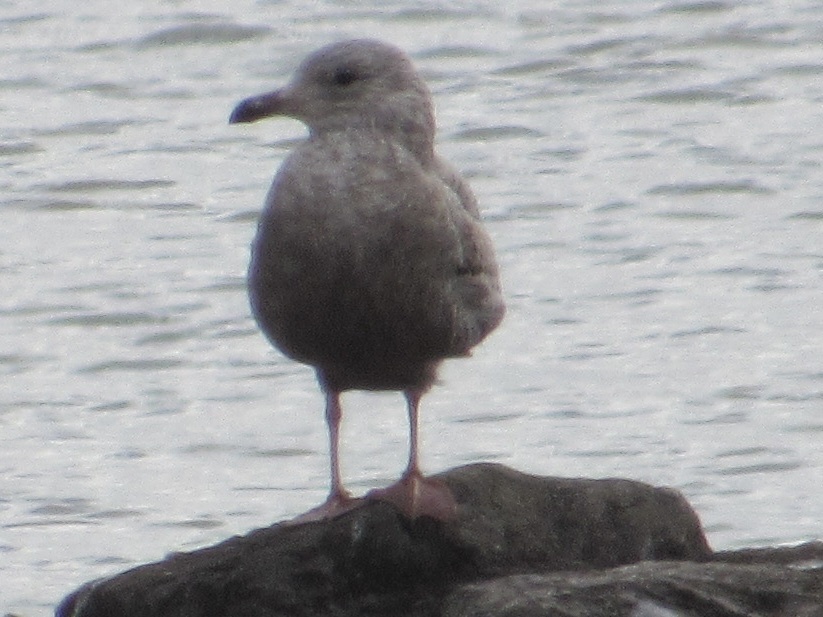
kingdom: Animalia
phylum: Chordata
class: Aves
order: Charadriiformes
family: Laridae
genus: Larus
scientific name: Larus argentatus
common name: Herring gull
